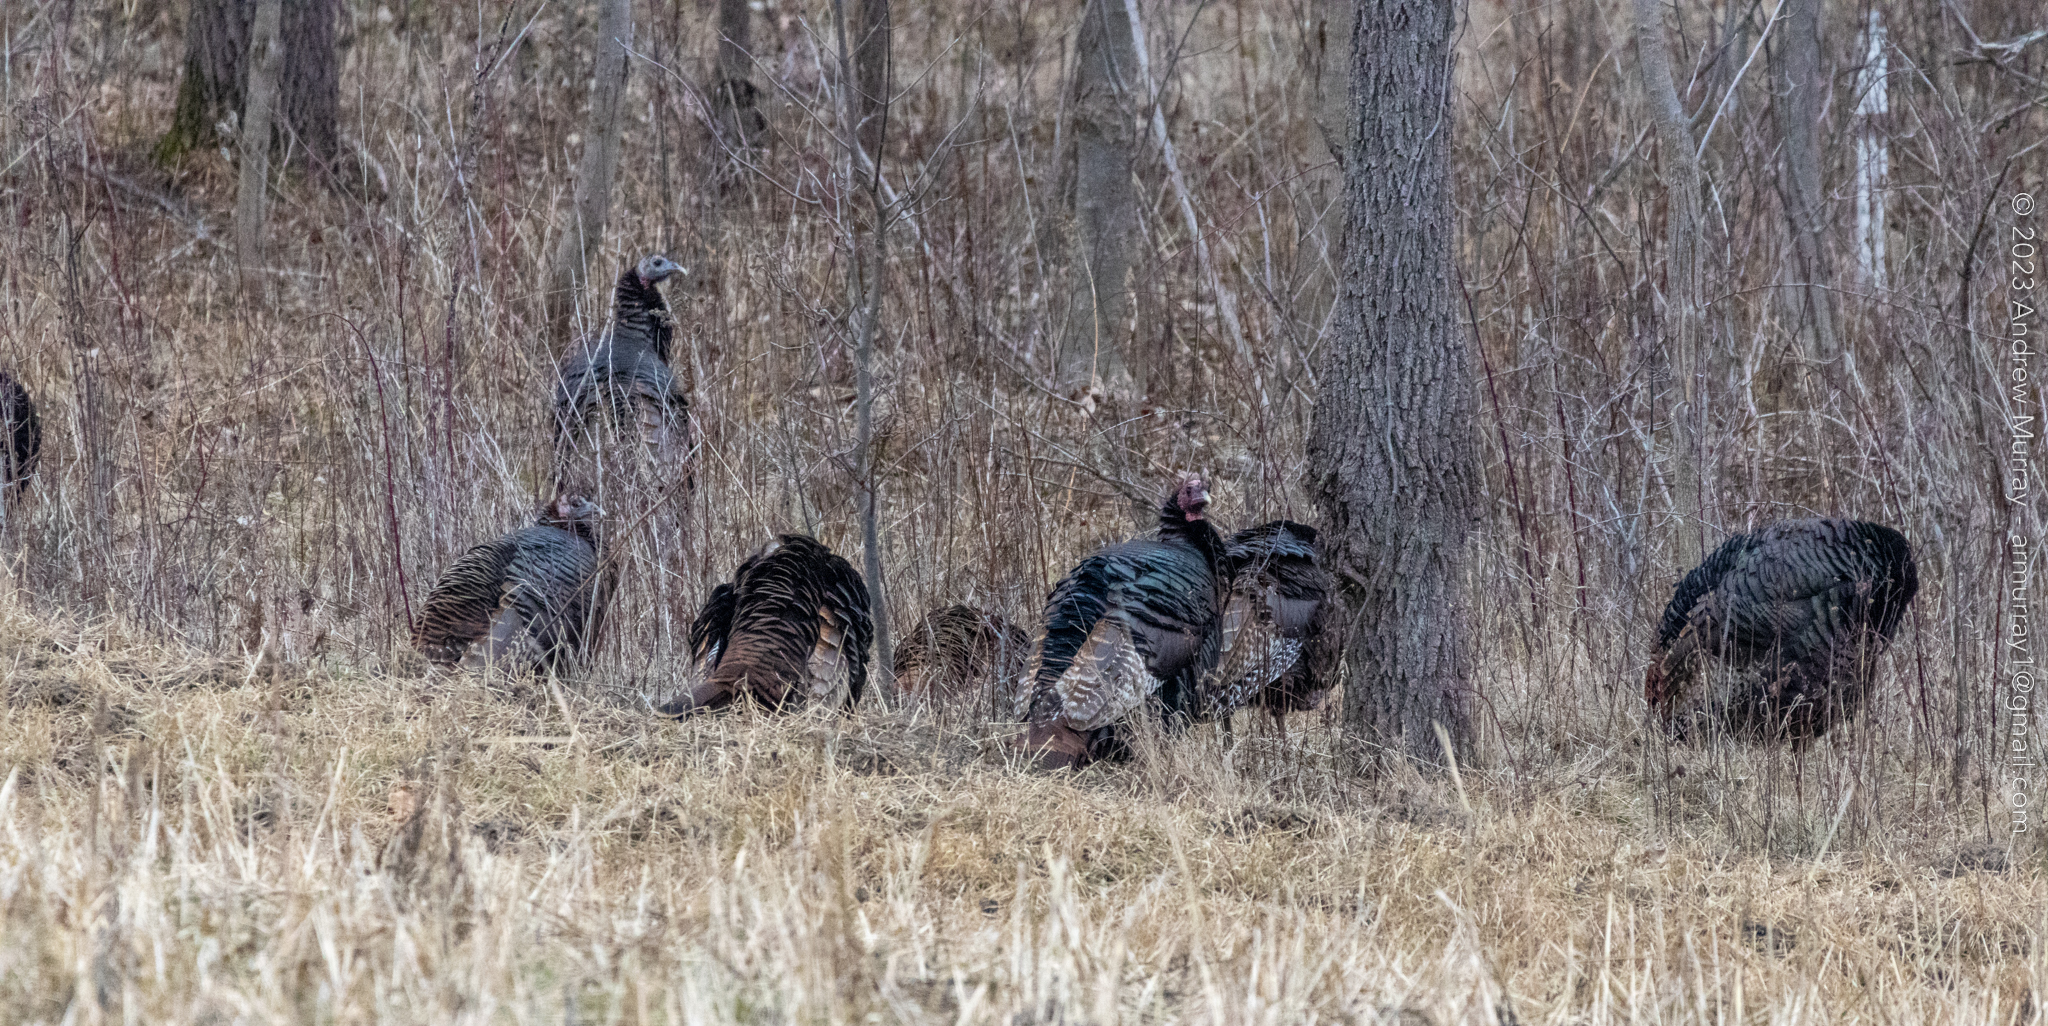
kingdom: Animalia
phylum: Chordata
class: Aves
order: Galliformes
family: Phasianidae
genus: Meleagris
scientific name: Meleagris gallopavo
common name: Wild turkey
